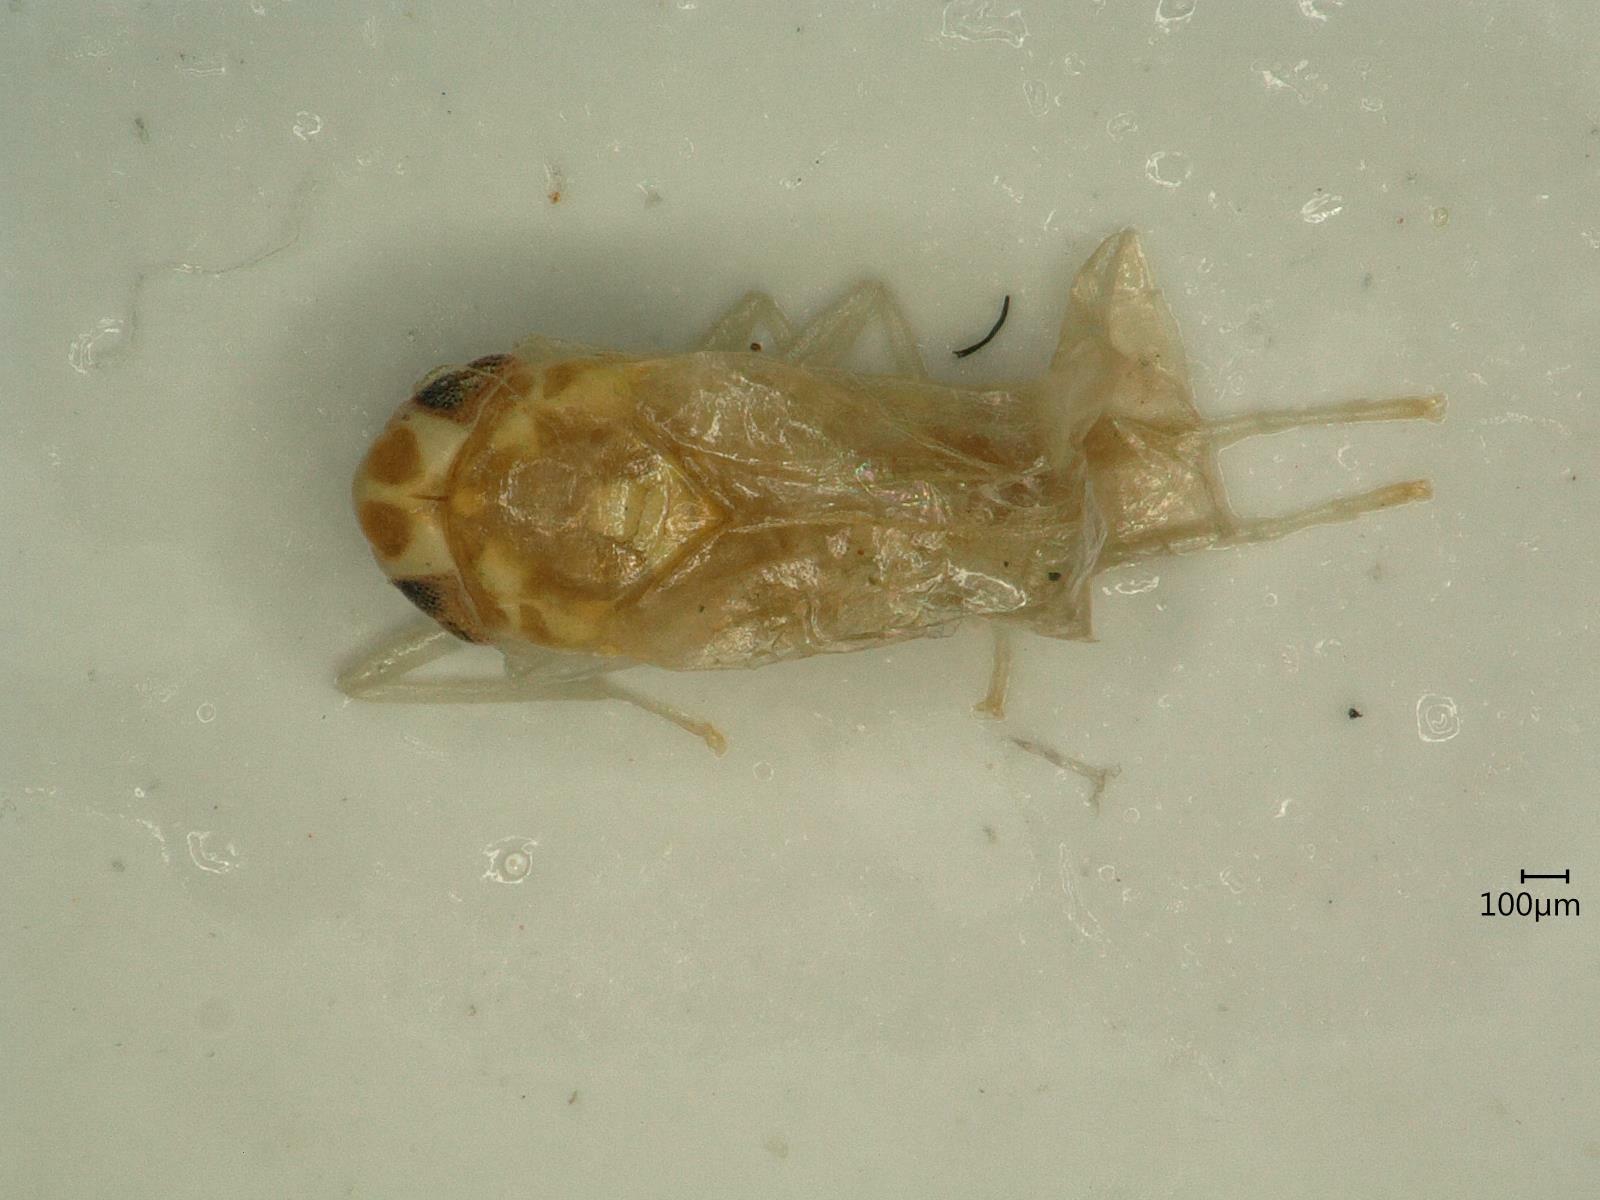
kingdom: Animalia
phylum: Arthropoda
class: Insecta
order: Hemiptera
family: Cicadellidae
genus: Eupteryx
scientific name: Eupteryx urticae
